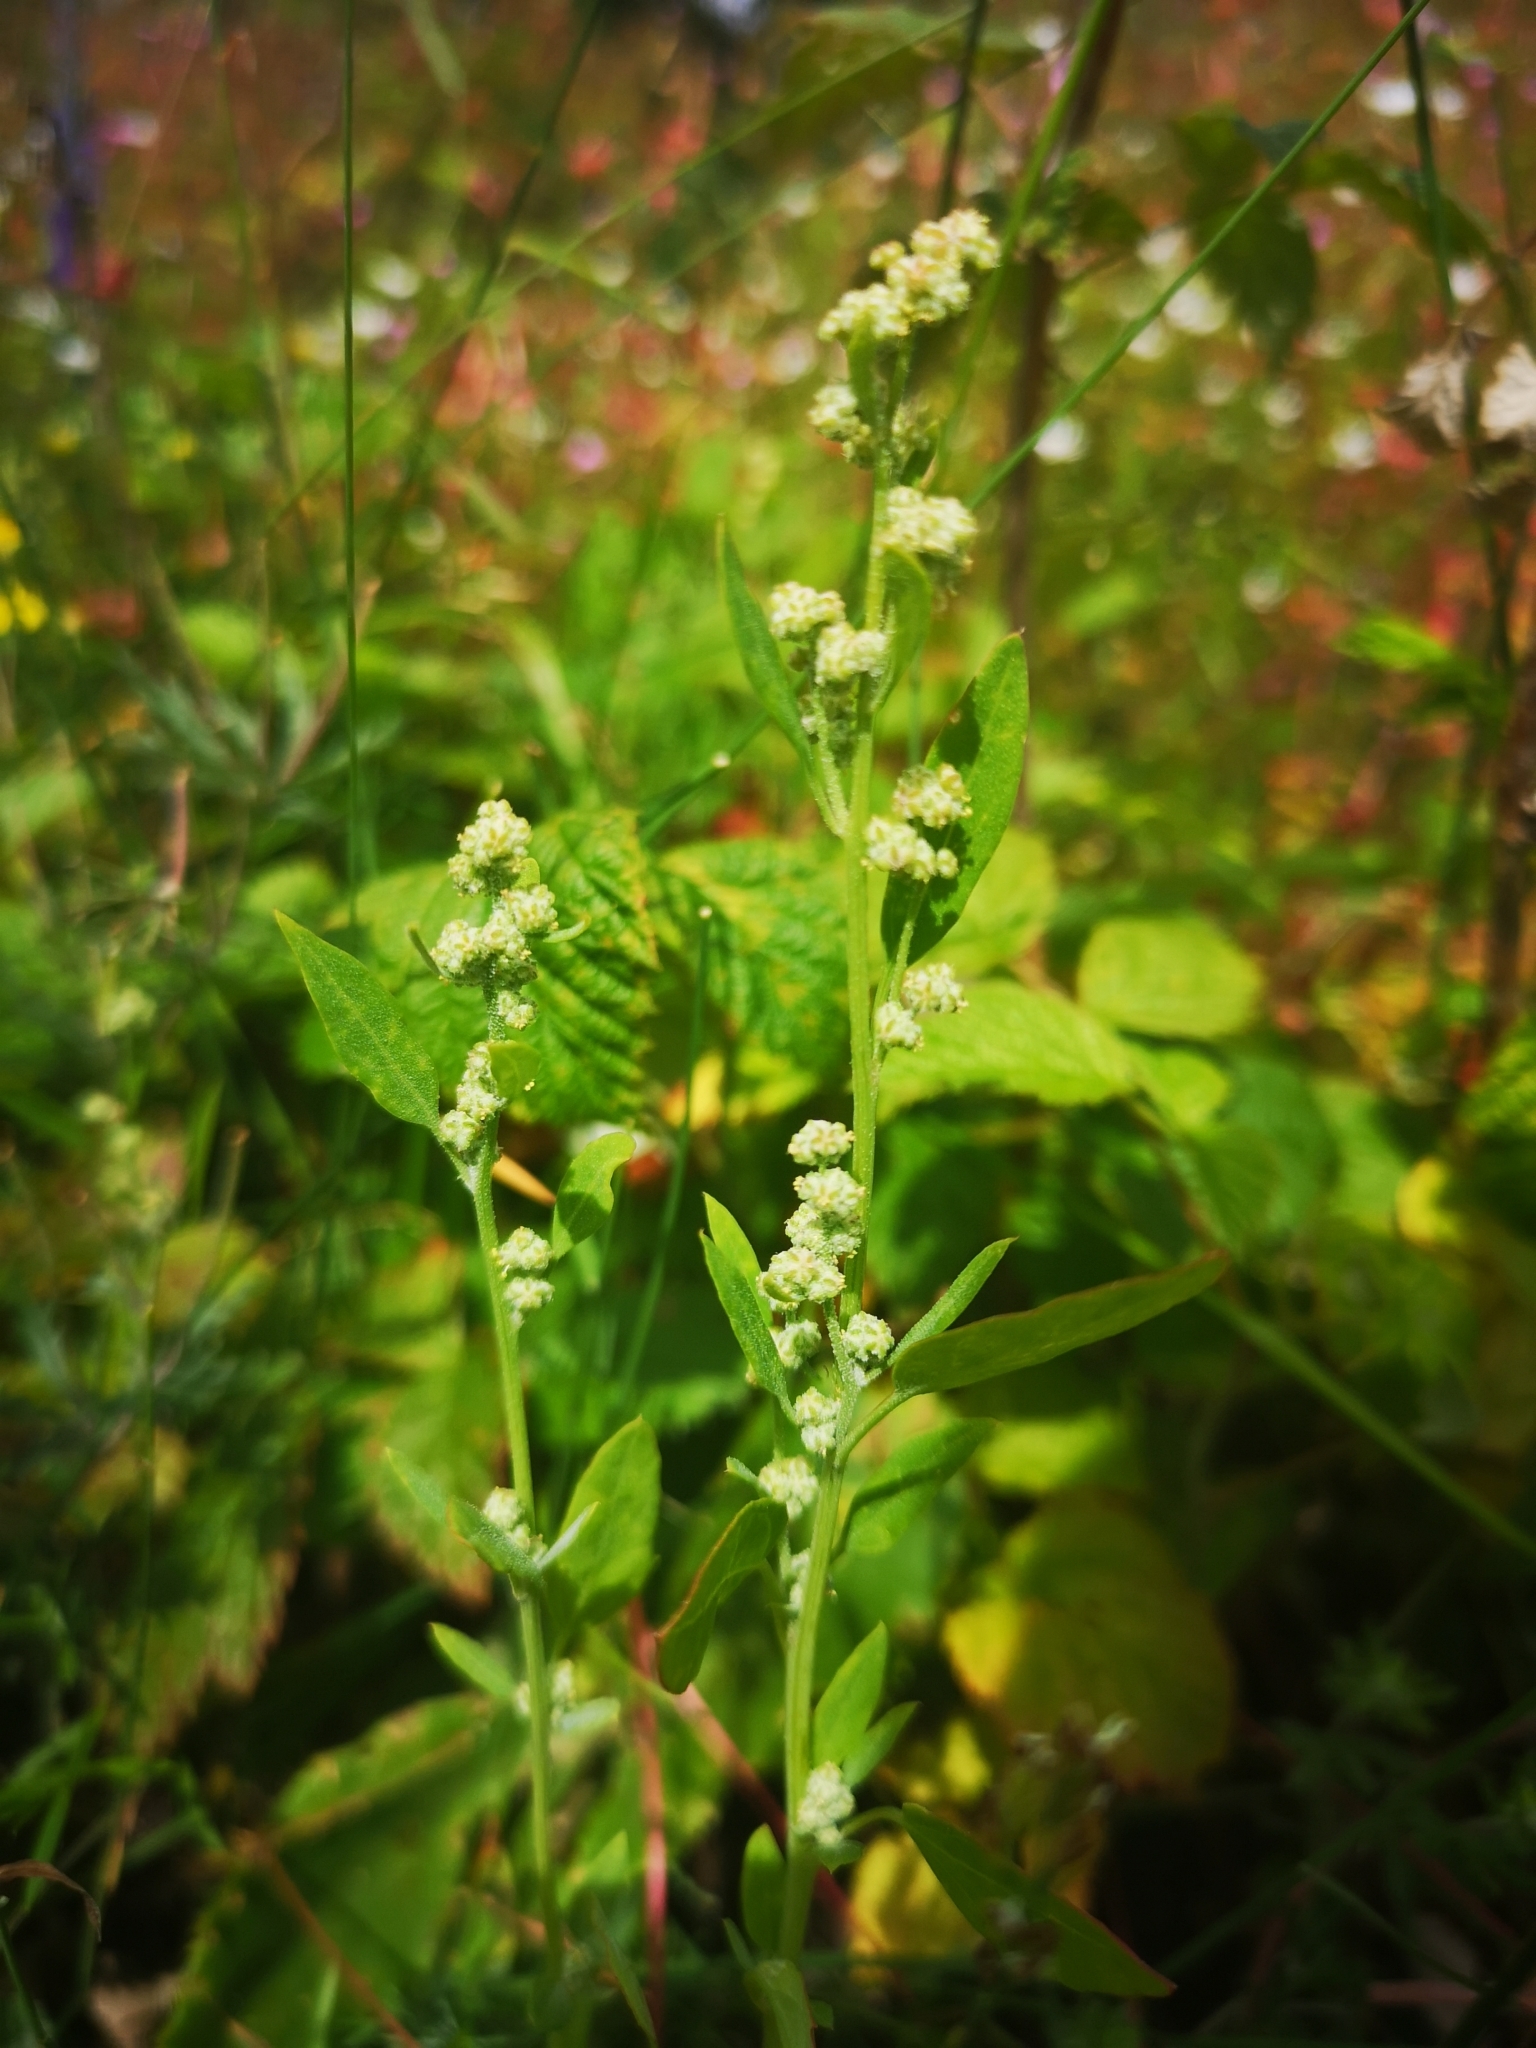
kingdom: Plantae
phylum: Tracheophyta
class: Magnoliopsida
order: Caryophyllales
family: Amaranthaceae
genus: Chenopodium
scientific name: Chenopodium album
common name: Fat-hen
